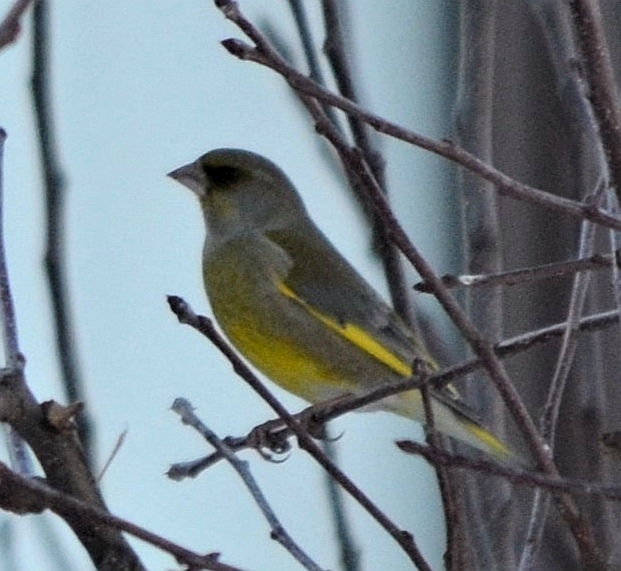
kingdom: Plantae
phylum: Tracheophyta
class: Liliopsida
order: Poales
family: Poaceae
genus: Chloris
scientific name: Chloris chloris
